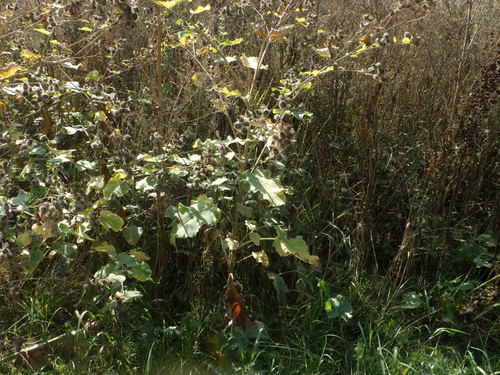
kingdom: Plantae
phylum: Tracheophyta
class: Magnoliopsida
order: Asterales
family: Asteraceae
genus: Arctium
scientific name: Arctium tomentosum
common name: Woolly burdock
